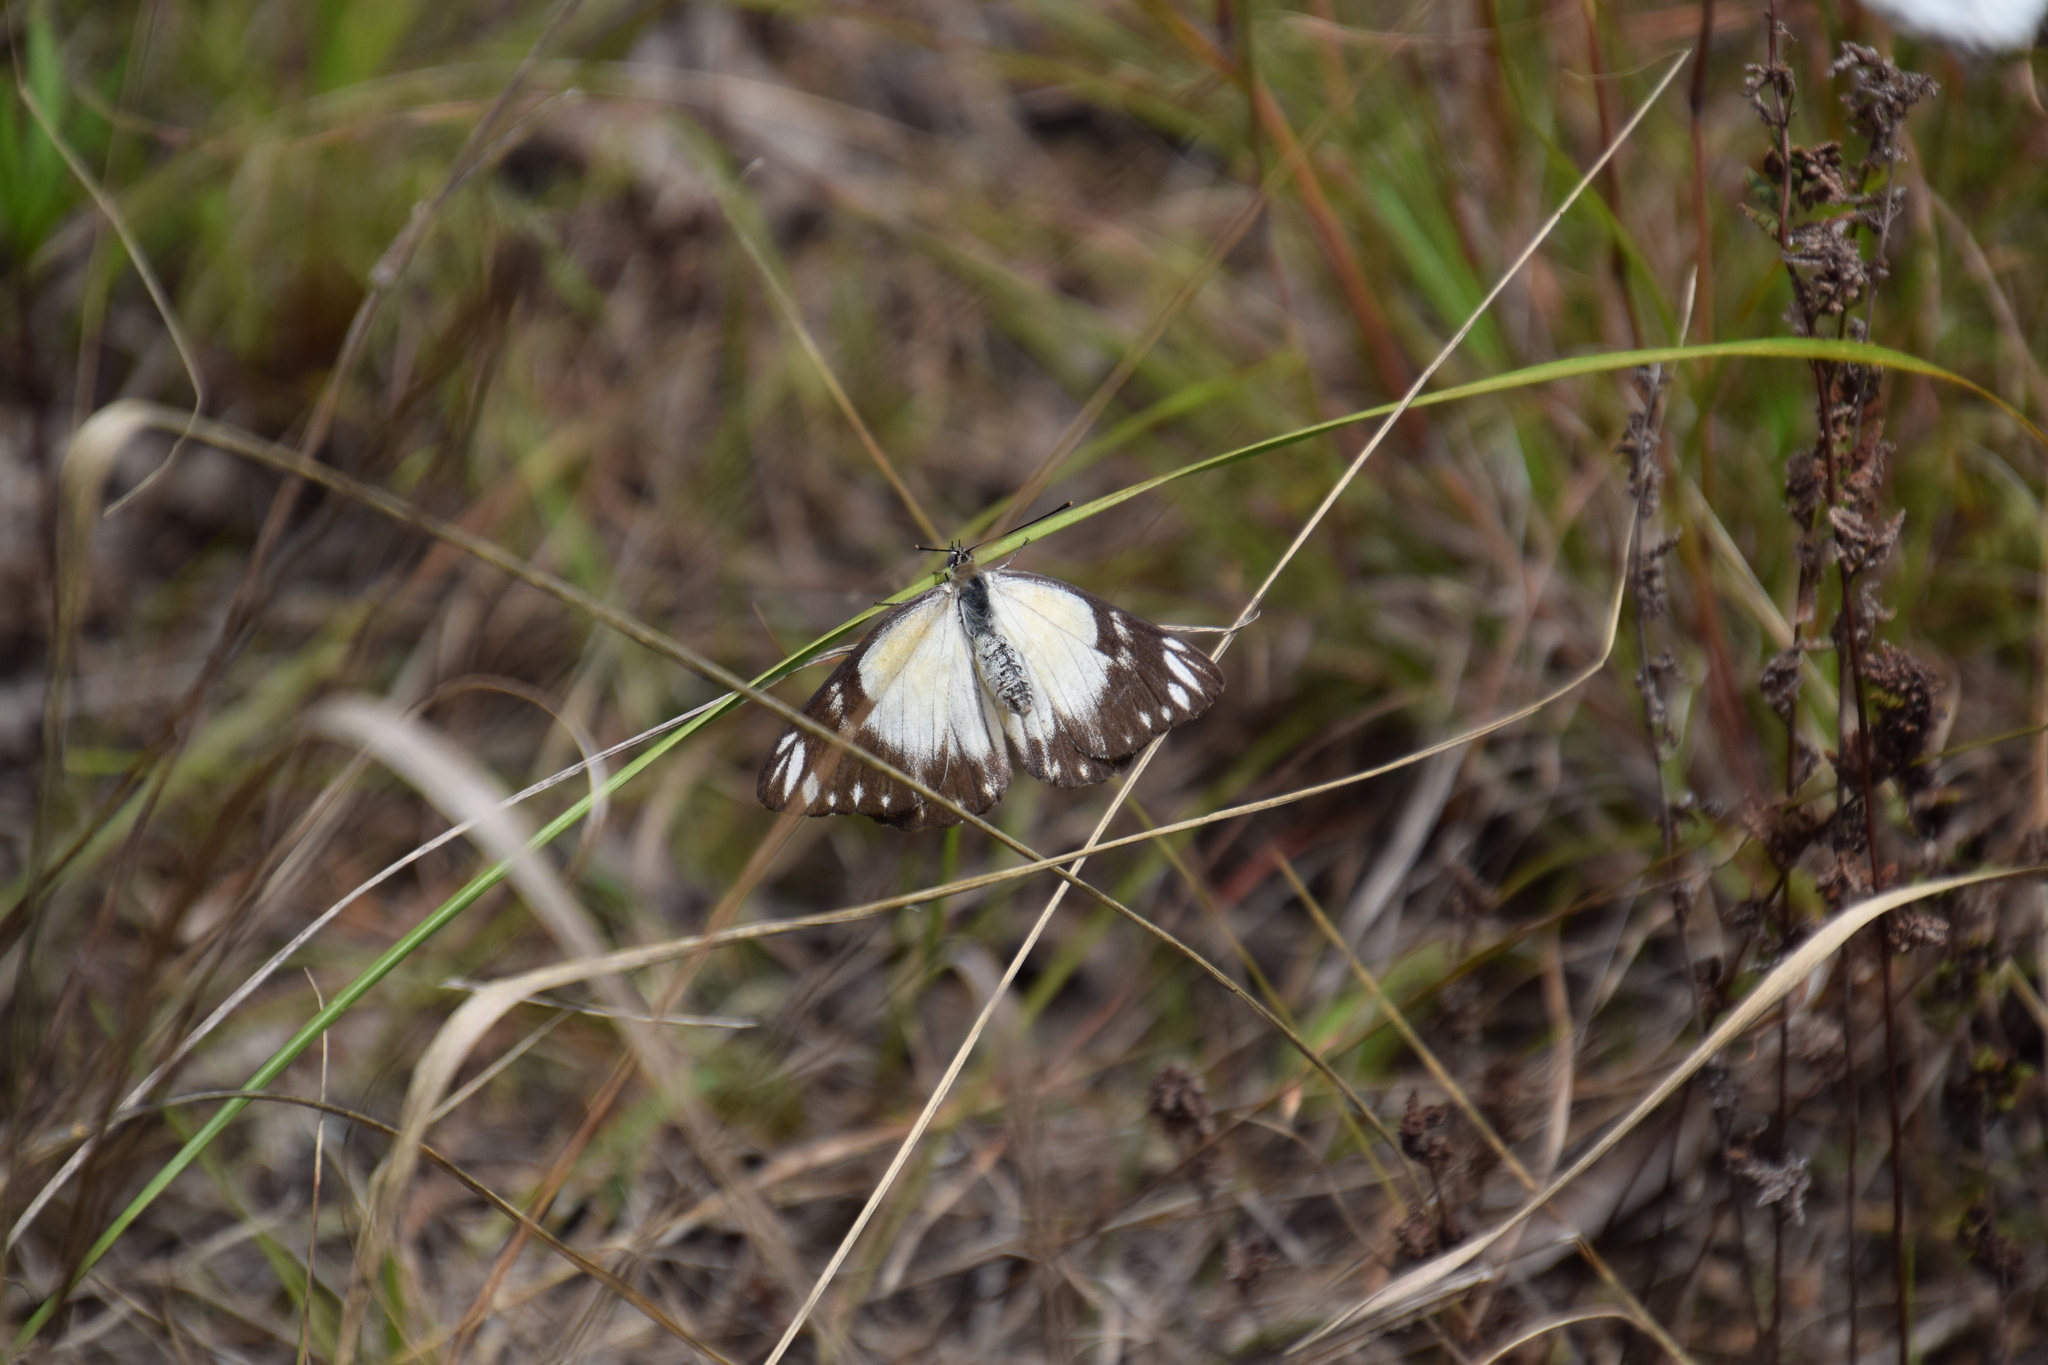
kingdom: Animalia
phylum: Arthropoda
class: Insecta
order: Lepidoptera
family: Pieridae
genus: Belenois
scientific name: Belenois java
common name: Caper white
